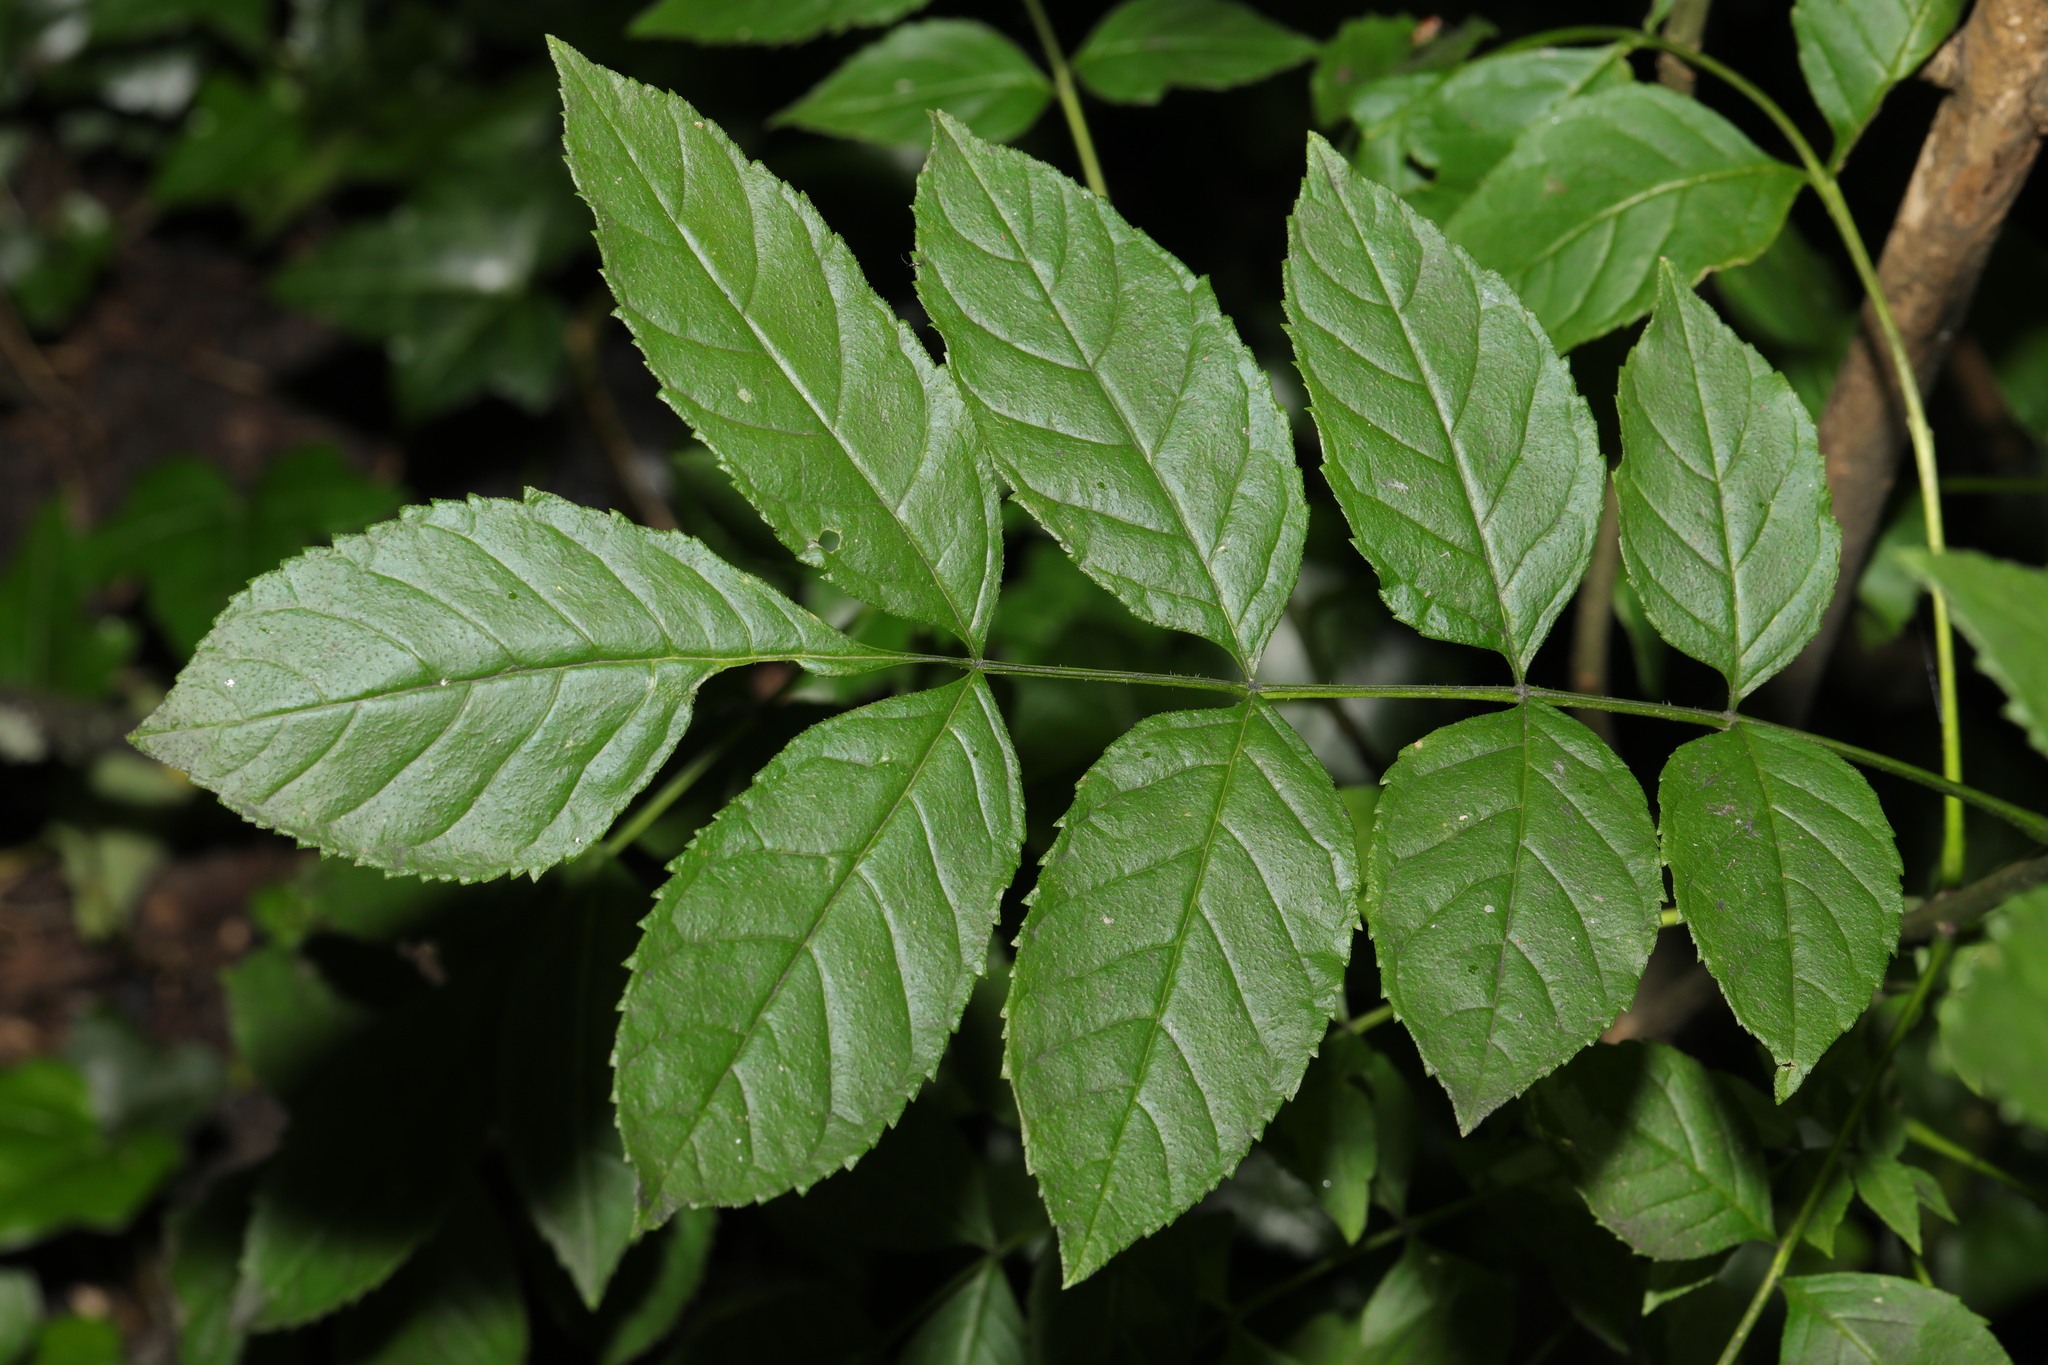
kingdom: Plantae
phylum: Tracheophyta
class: Magnoliopsida
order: Lamiales
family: Oleaceae
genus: Fraxinus
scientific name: Fraxinus excelsior
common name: European ash
